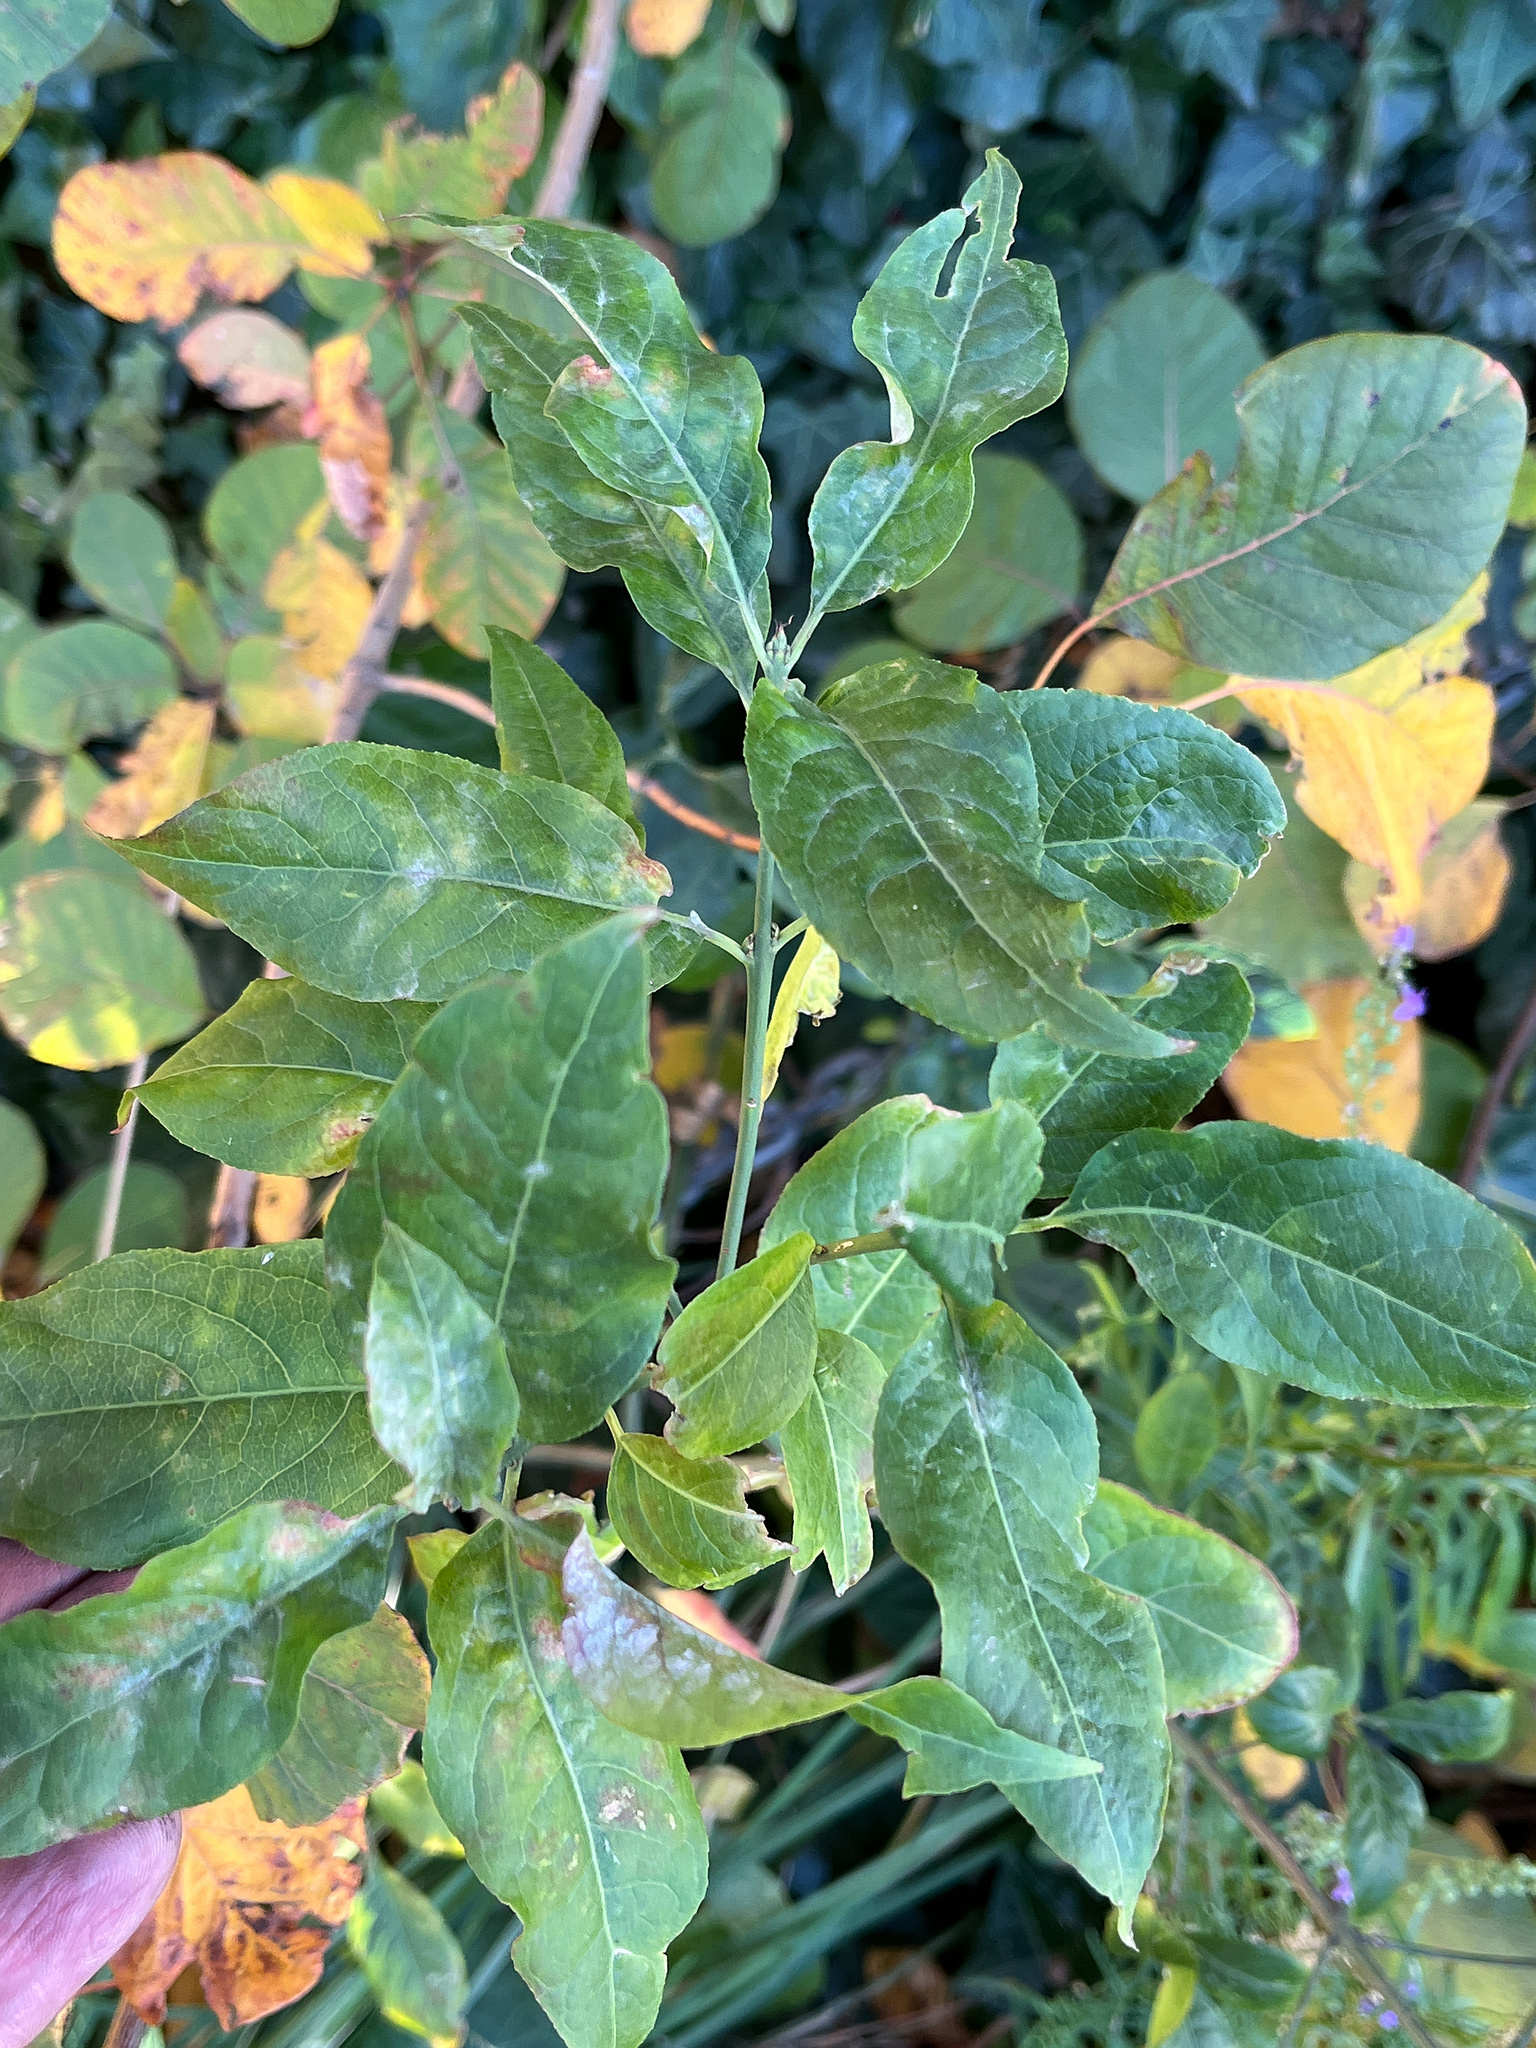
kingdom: Plantae
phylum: Tracheophyta
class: Magnoliopsida
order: Celastrales
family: Celastraceae
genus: Euonymus
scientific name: Euonymus europaeus
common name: Spindle
